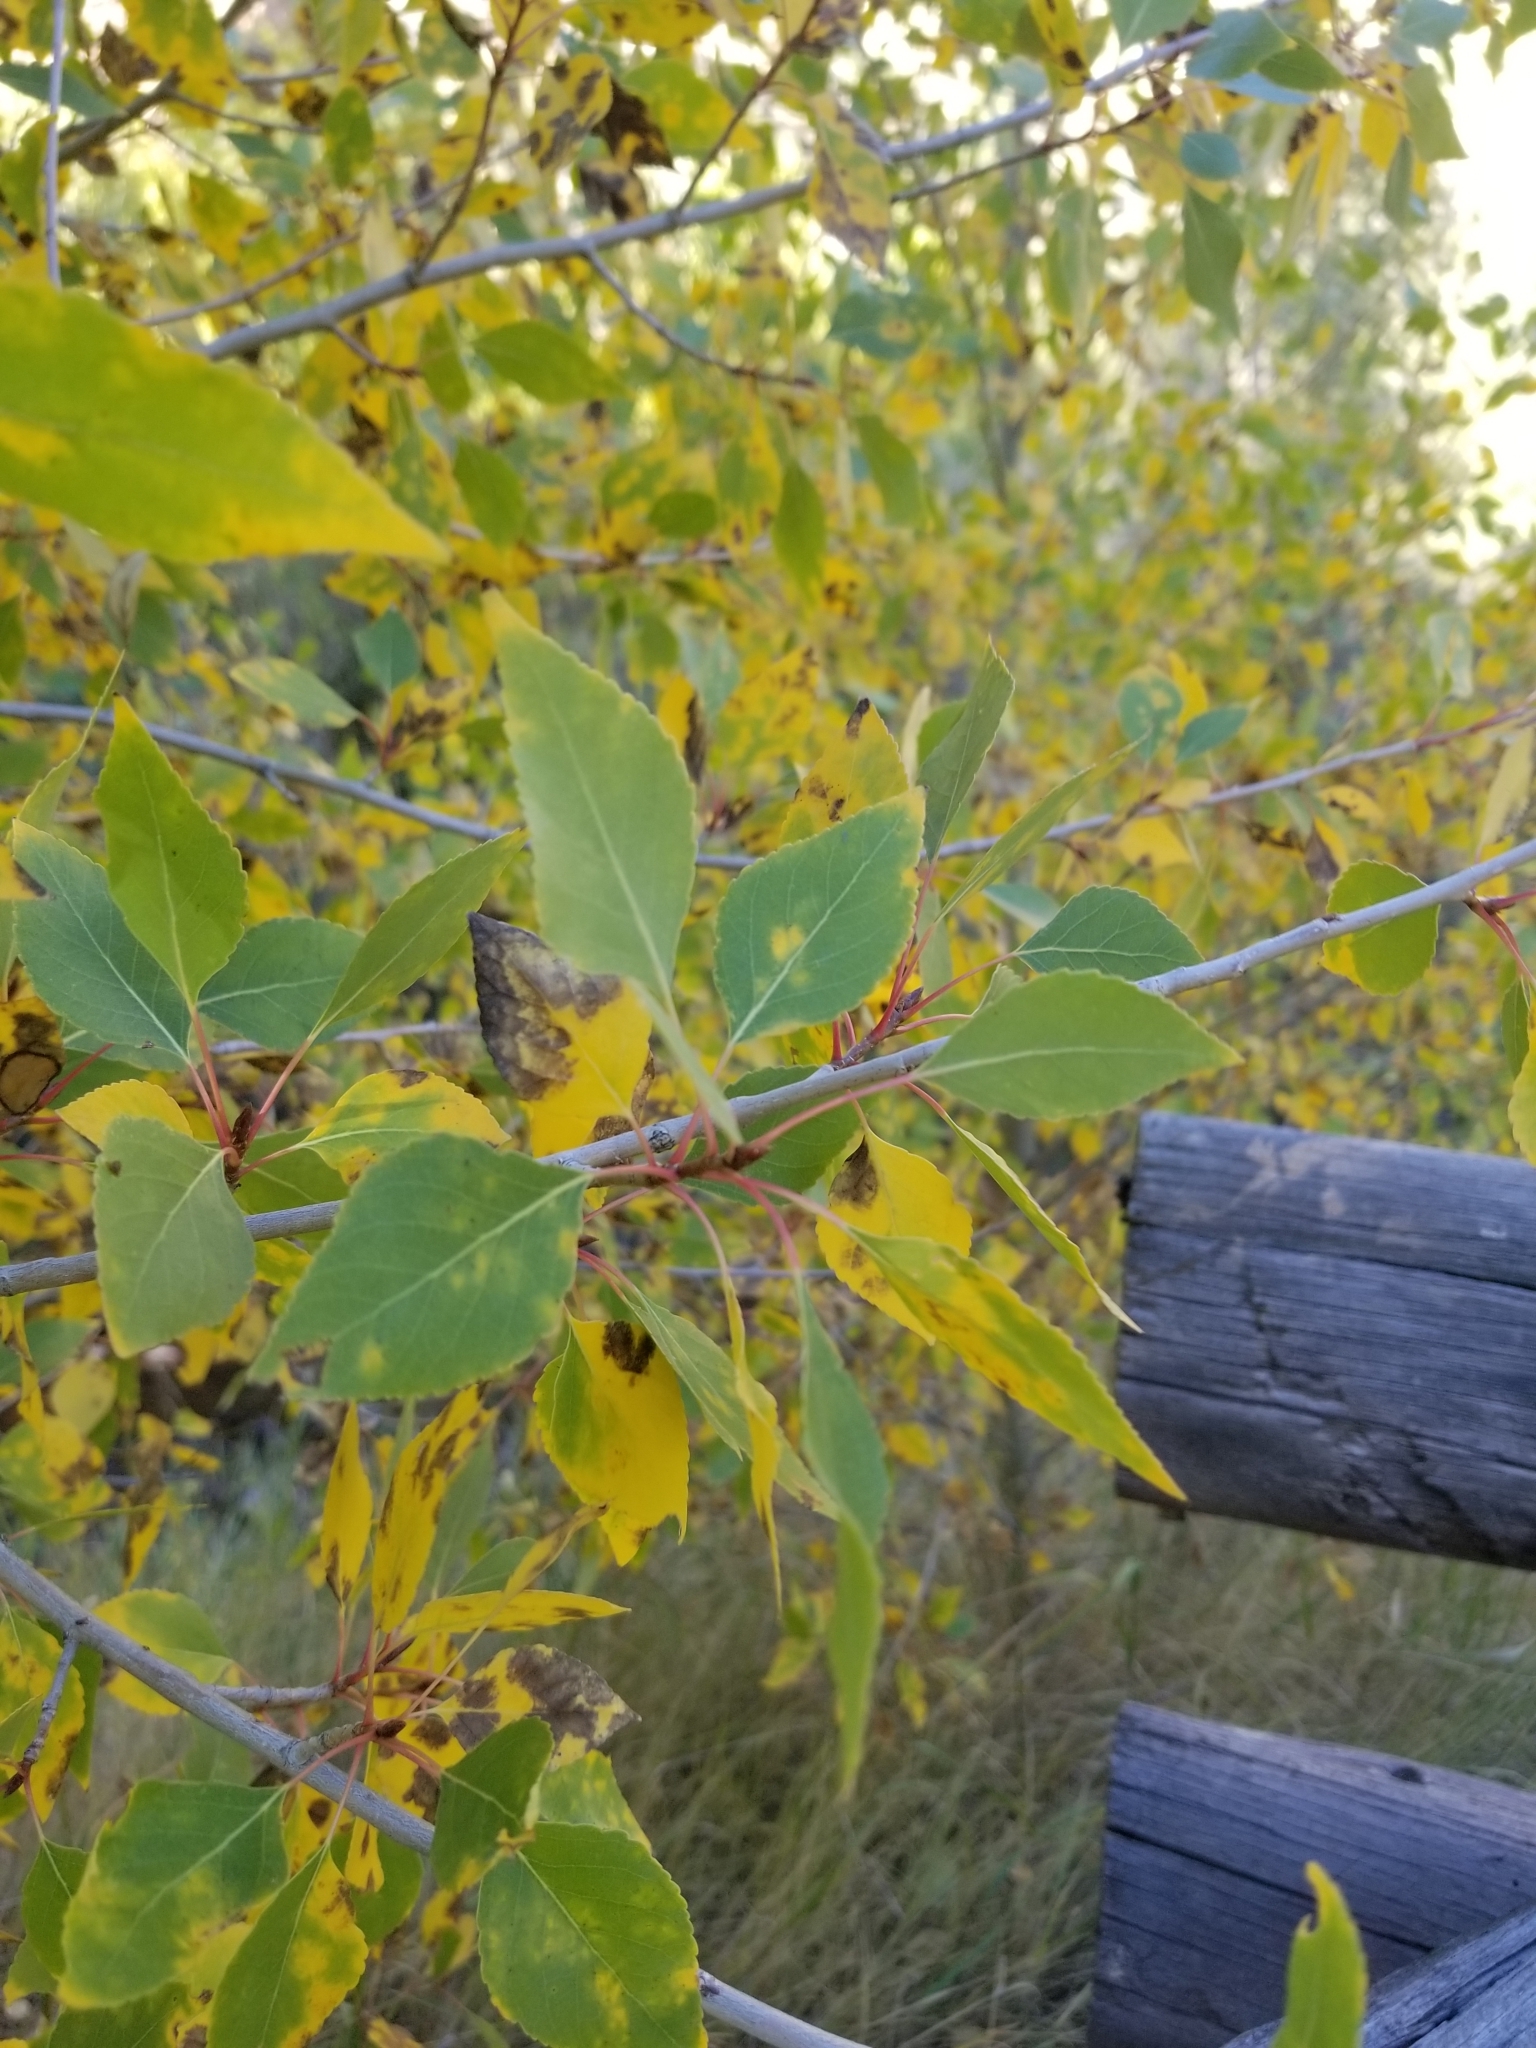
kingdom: Plantae
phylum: Tracheophyta
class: Magnoliopsida
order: Malpighiales
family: Salicaceae
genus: Populus
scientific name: Populus angustifolia
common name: Willow cottonwood
